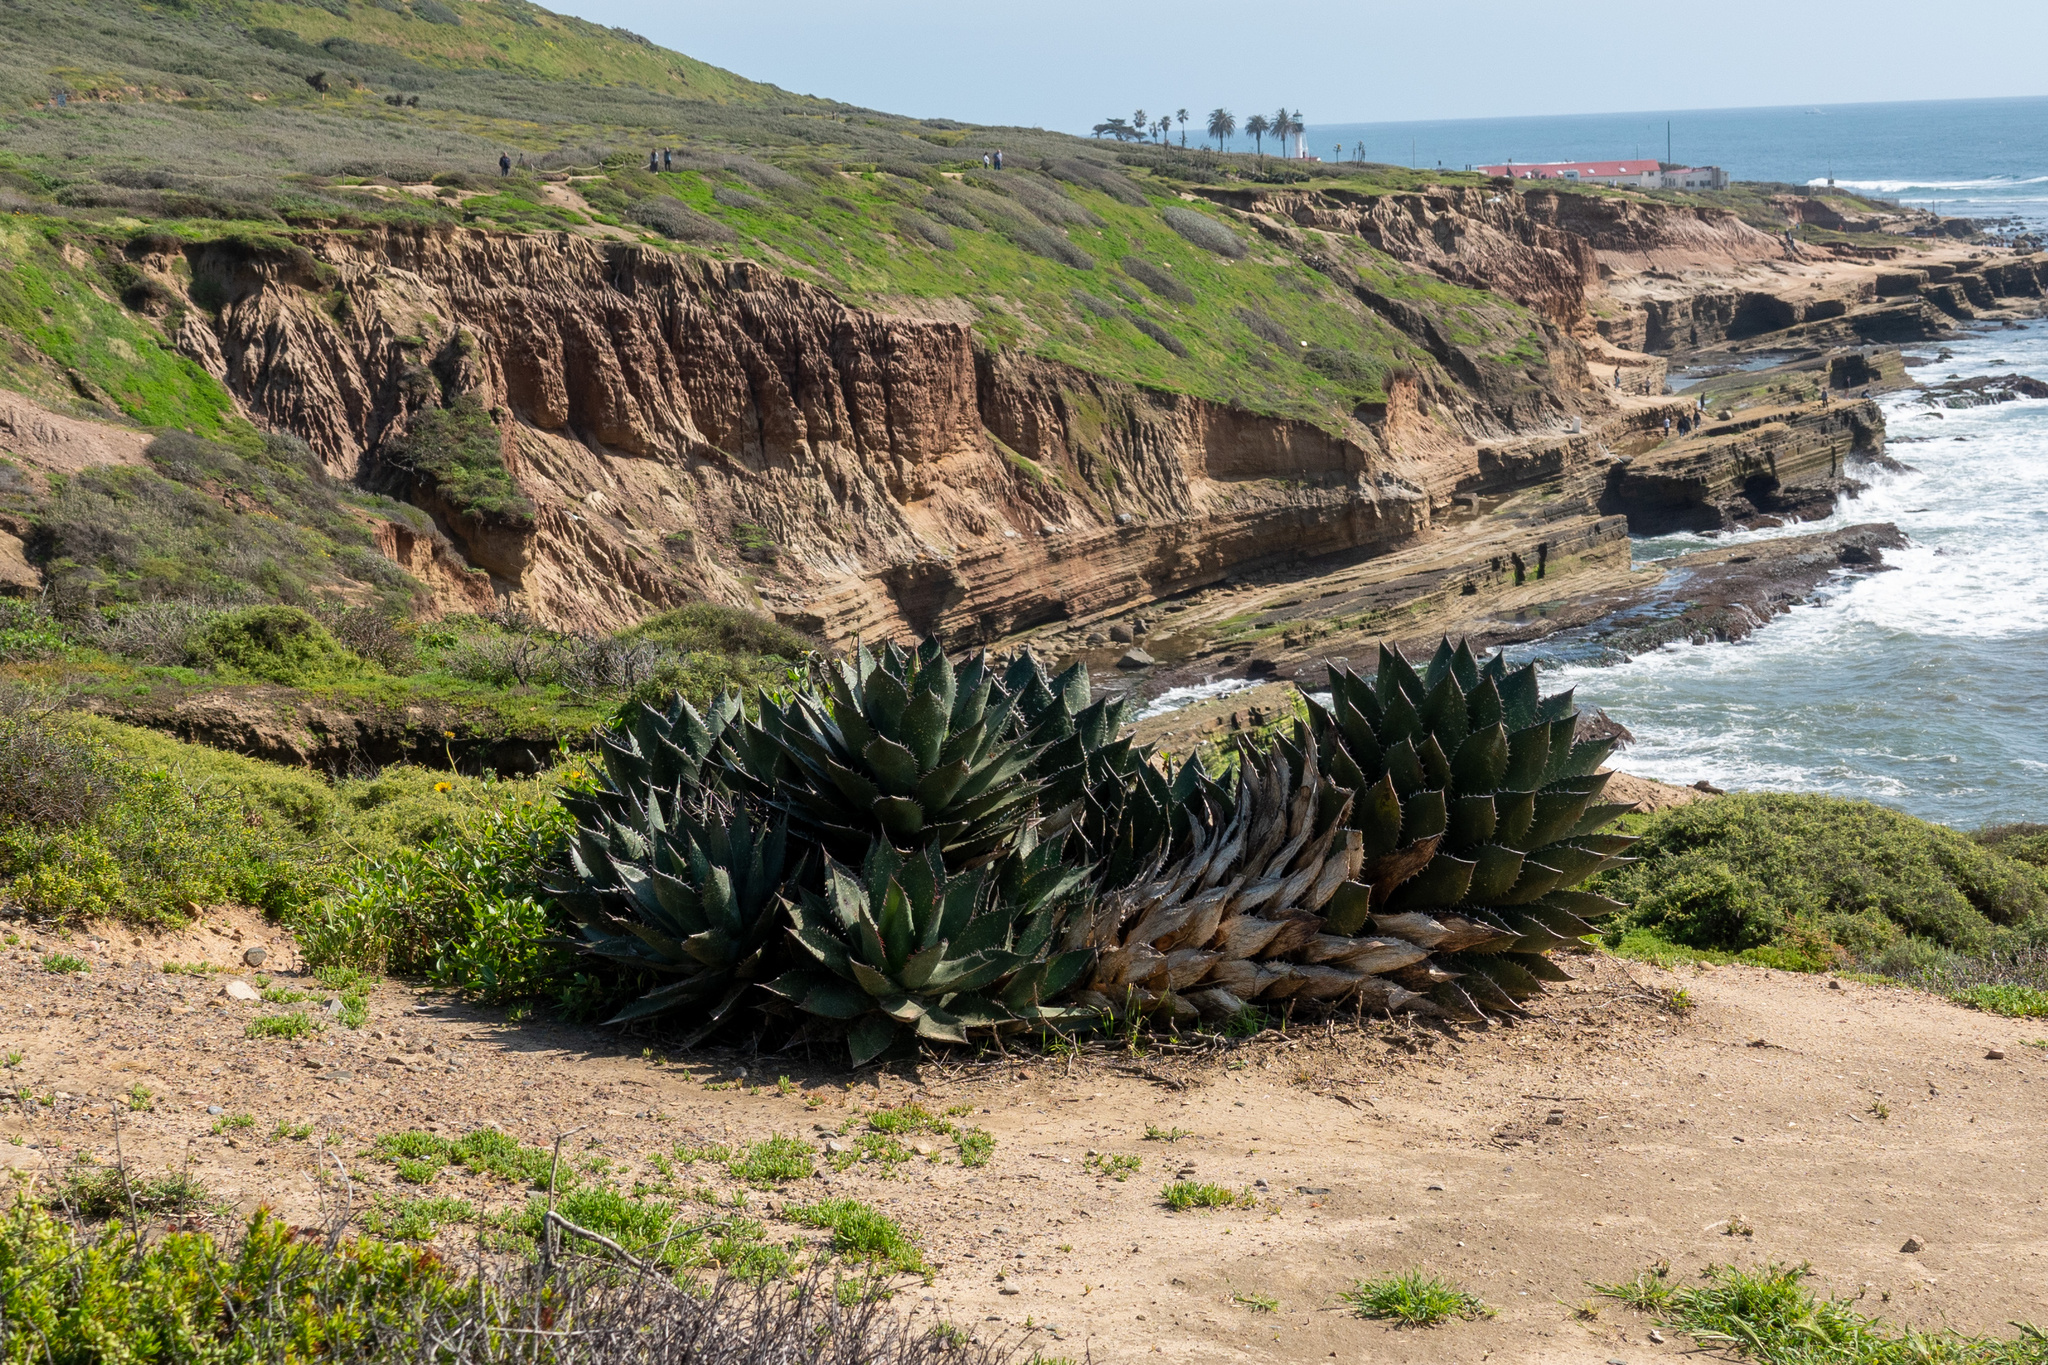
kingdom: Plantae
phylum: Tracheophyta
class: Liliopsida
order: Asparagales
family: Asparagaceae
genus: Agave
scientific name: Agave shawii
